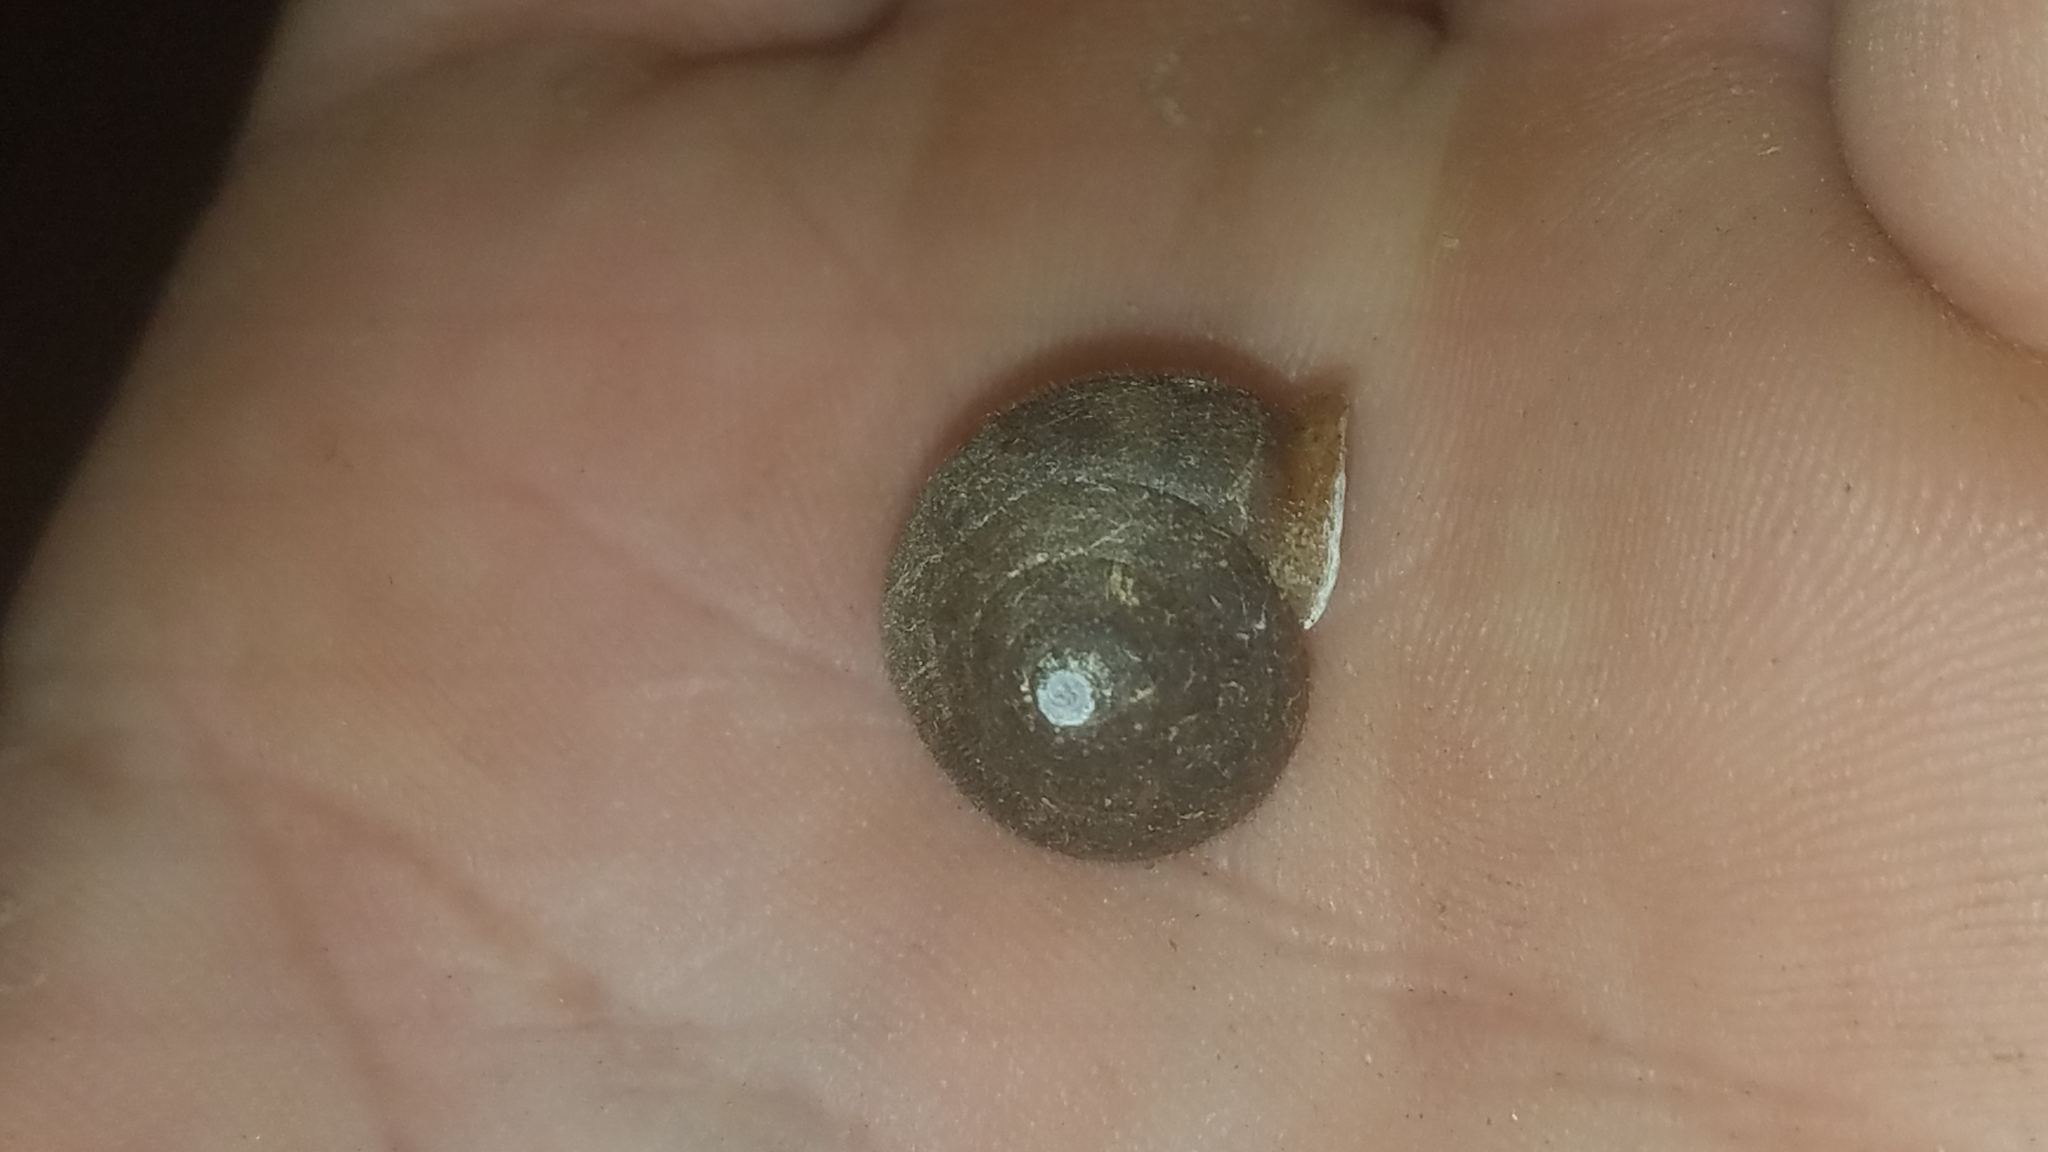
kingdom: Animalia
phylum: Mollusca
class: Gastropoda
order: Stylommatophora
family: Polygyridae
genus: Vespericola
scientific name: Vespericola columbianus
